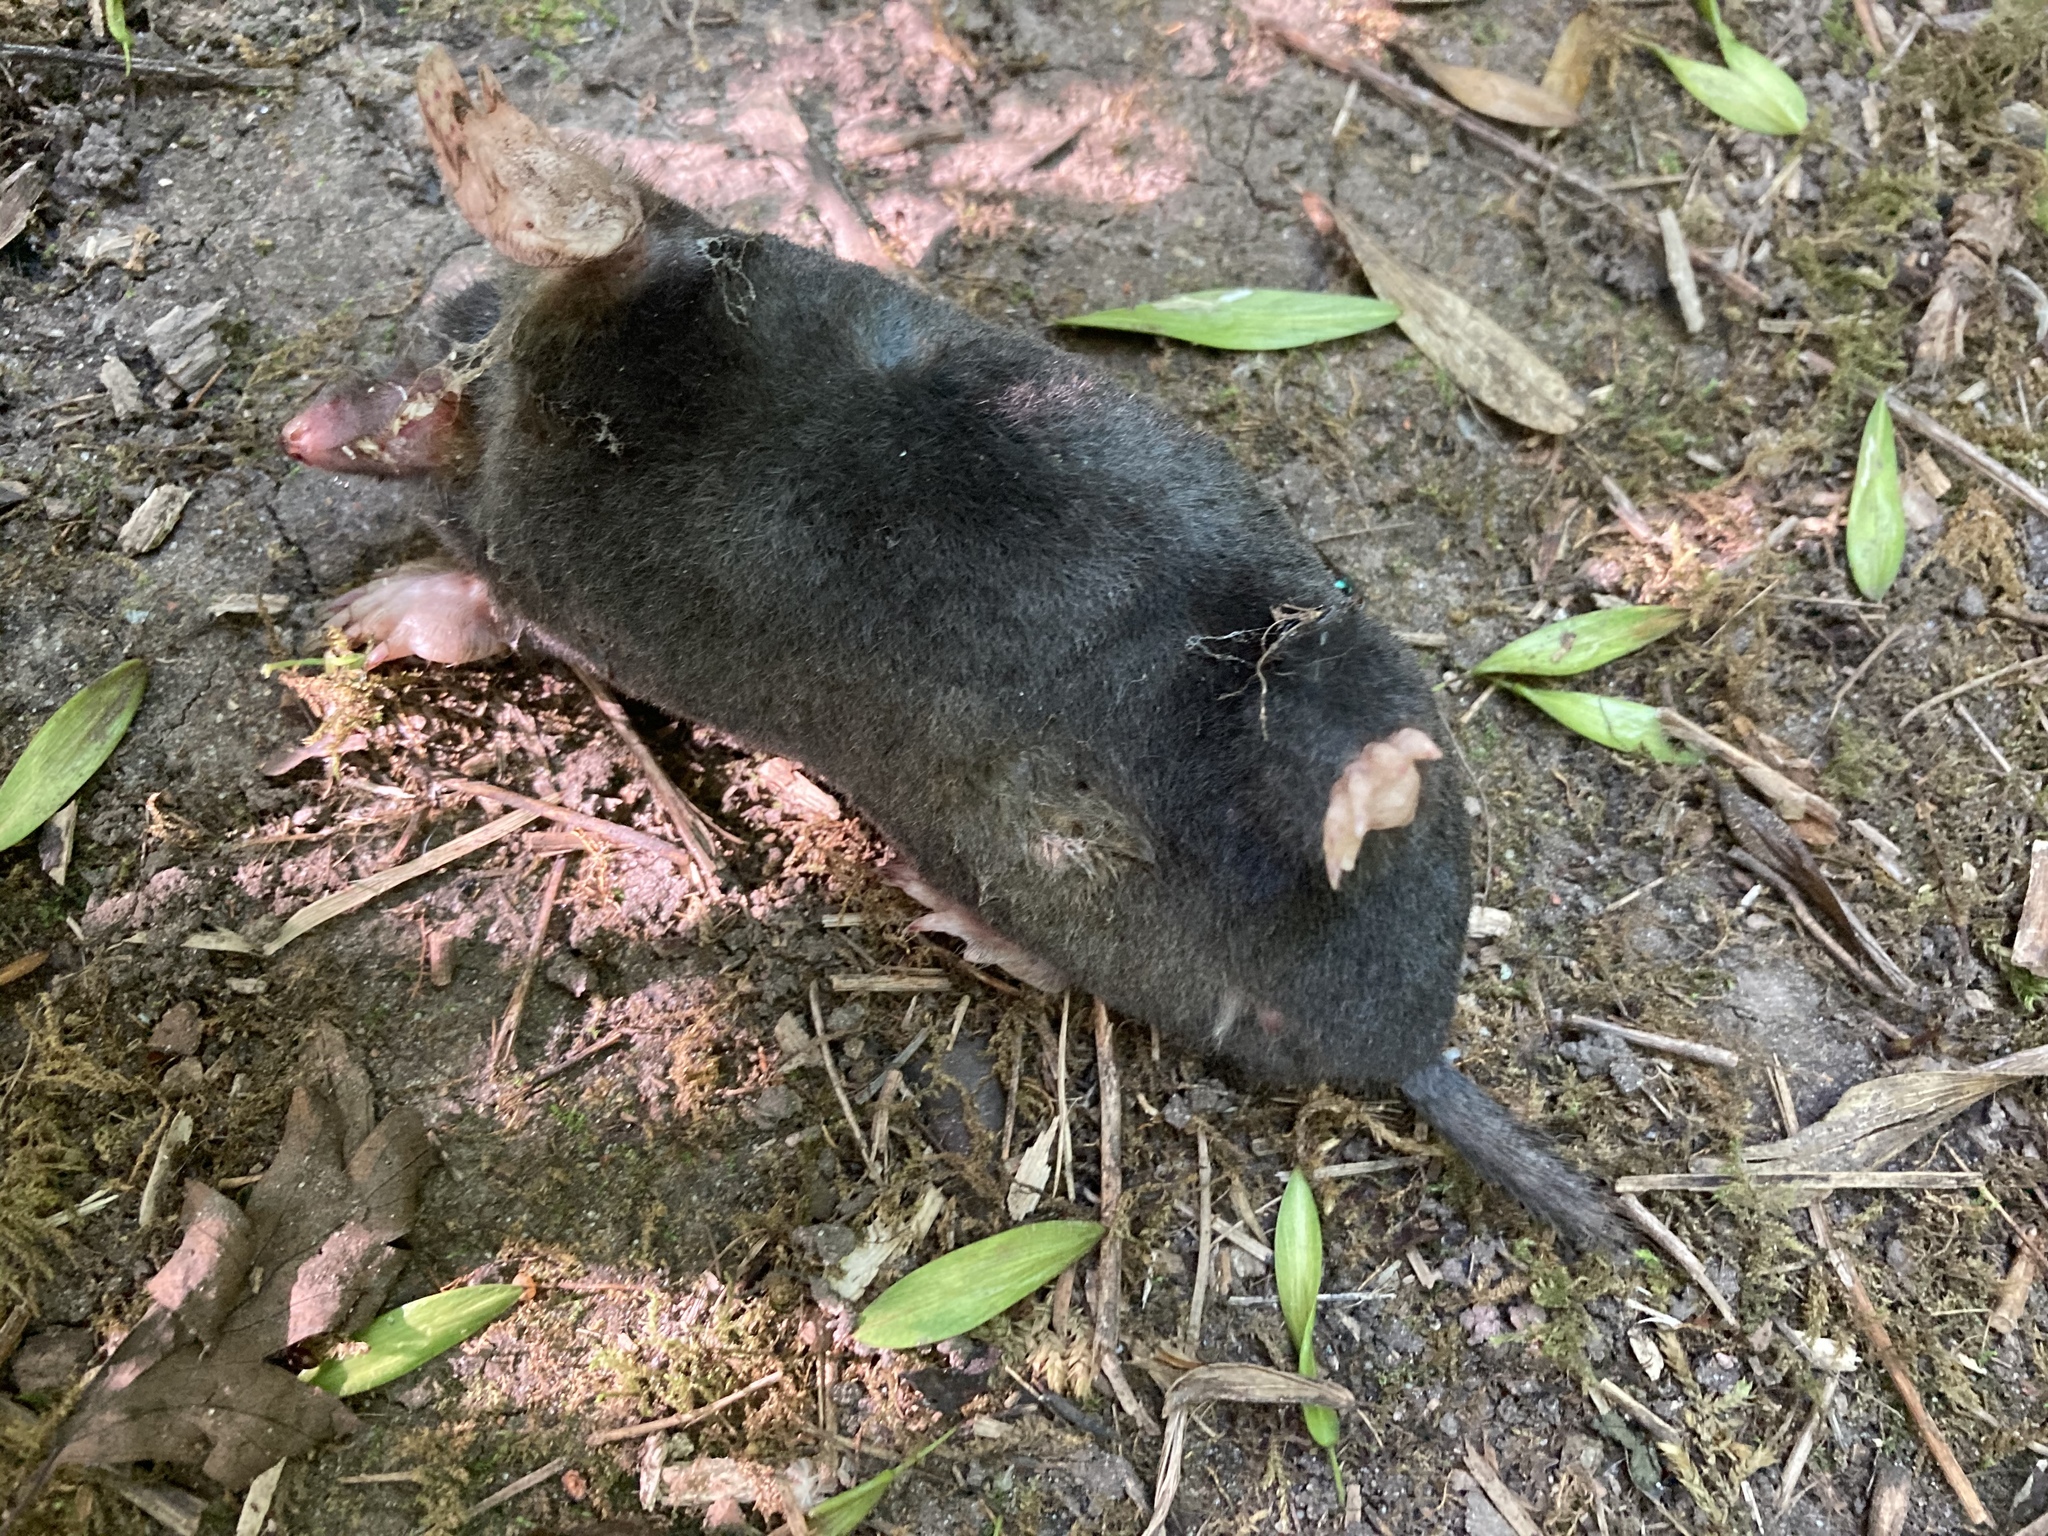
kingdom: Animalia
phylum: Chordata
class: Mammalia
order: Soricomorpha
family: Talpidae
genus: Talpa
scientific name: Talpa europaea
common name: European mole
